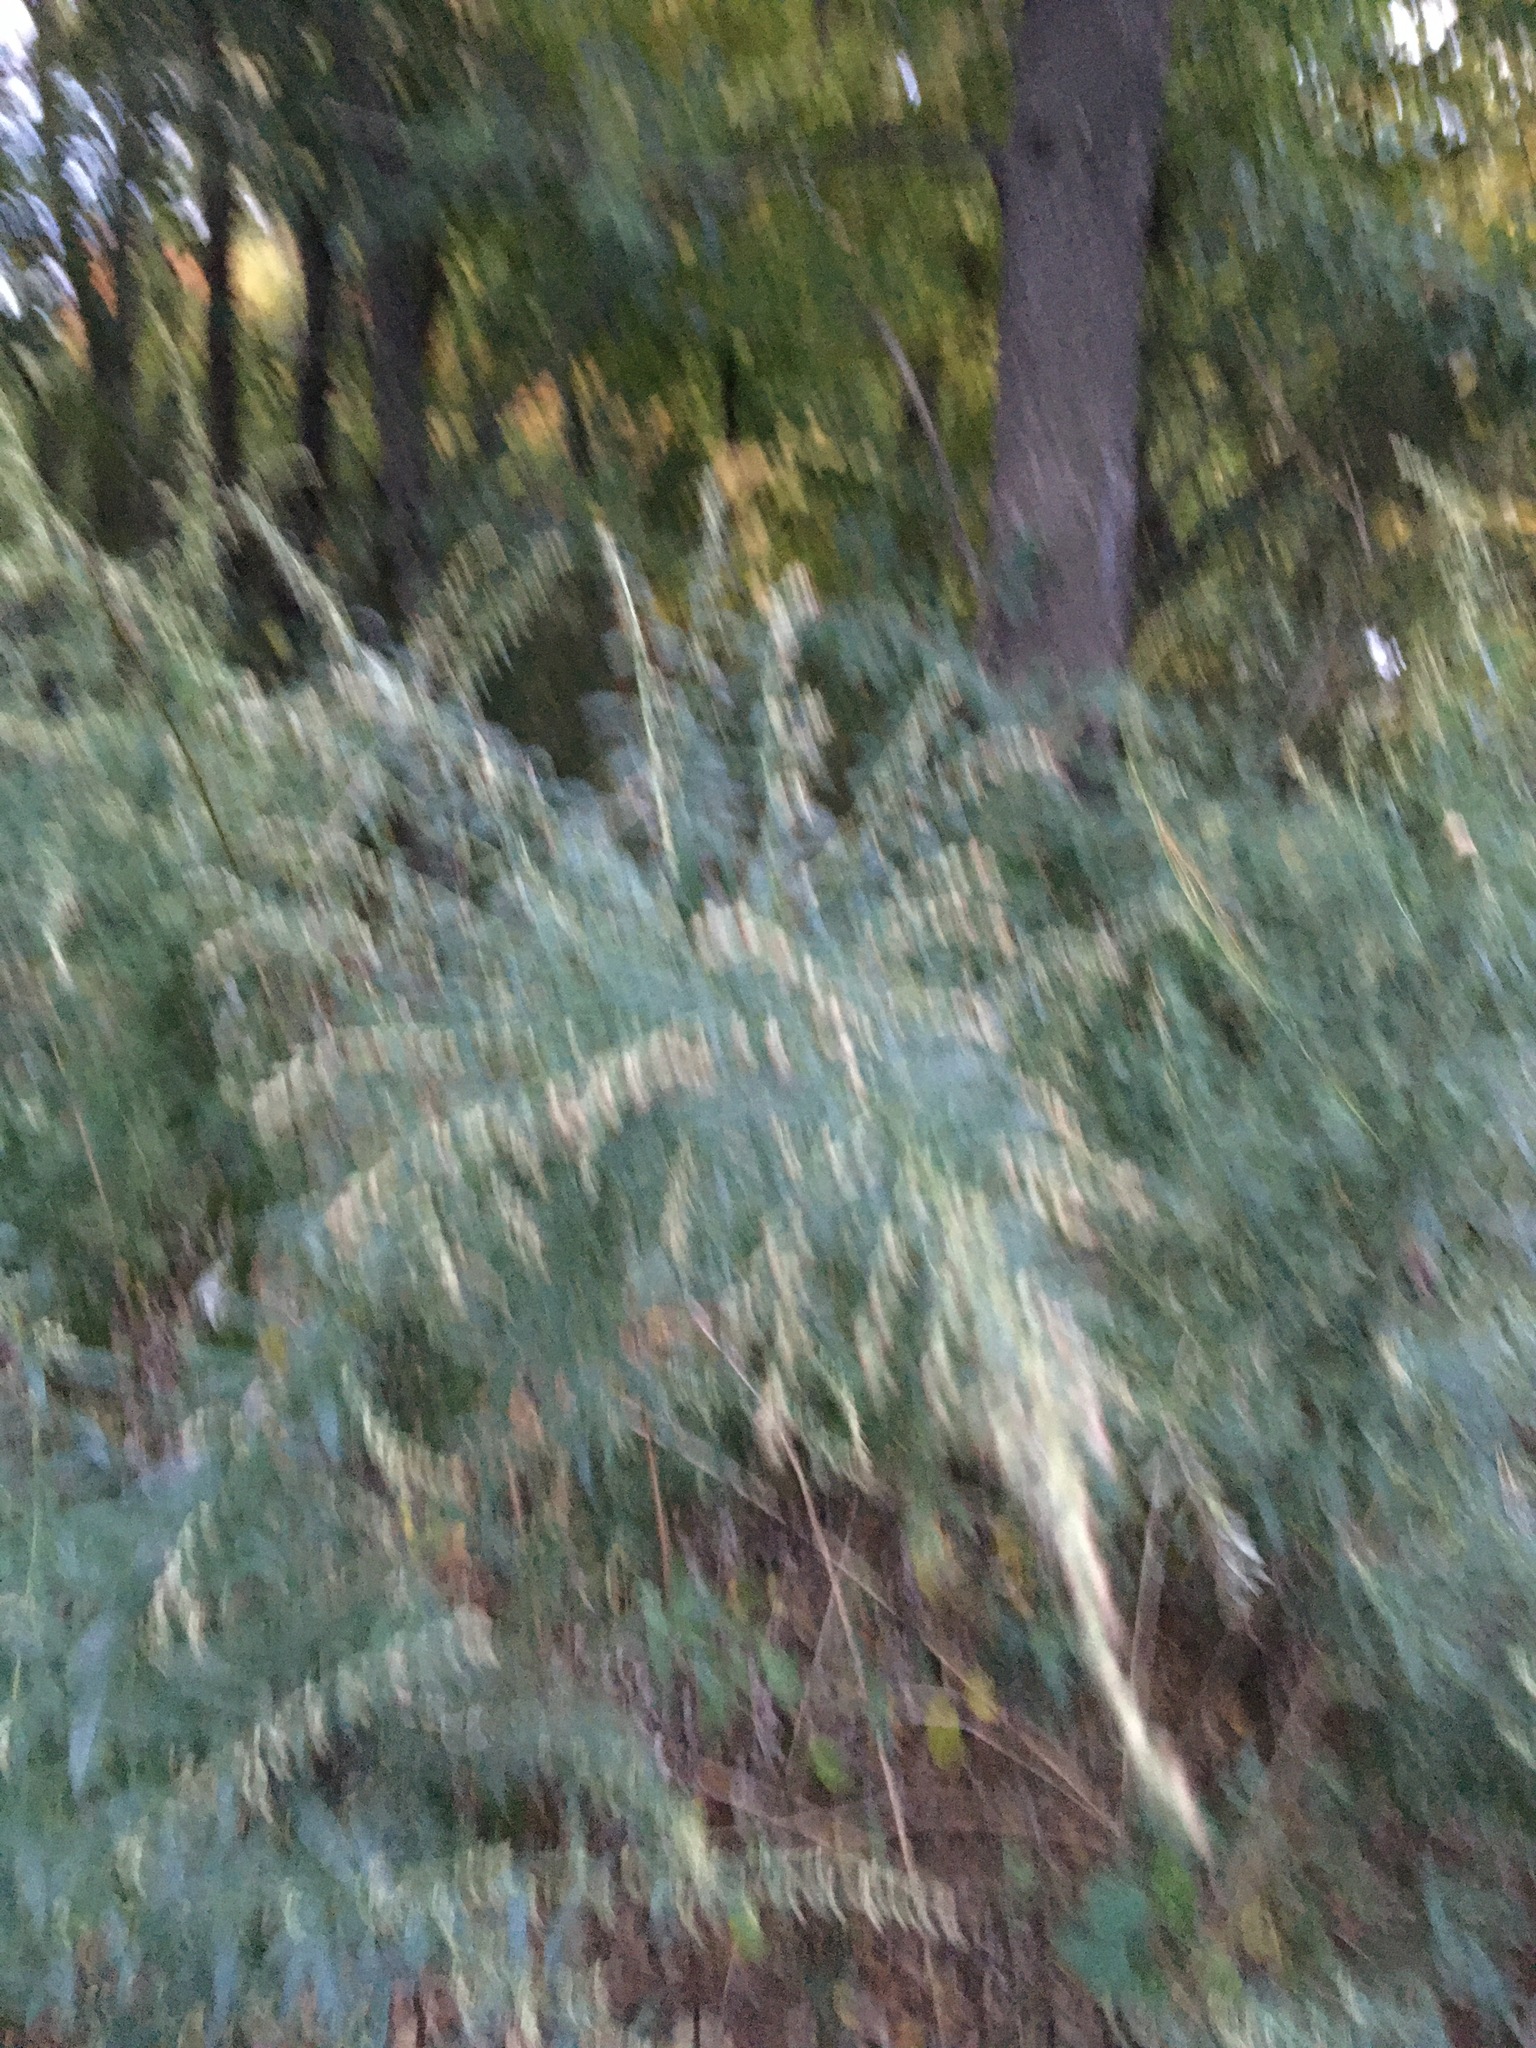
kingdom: Plantae
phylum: Tracheophyta
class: Magnoliopsida
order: Asterales
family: Asteraceae
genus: Artemisia
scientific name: Artemisia vulgaris
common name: Mugwort
